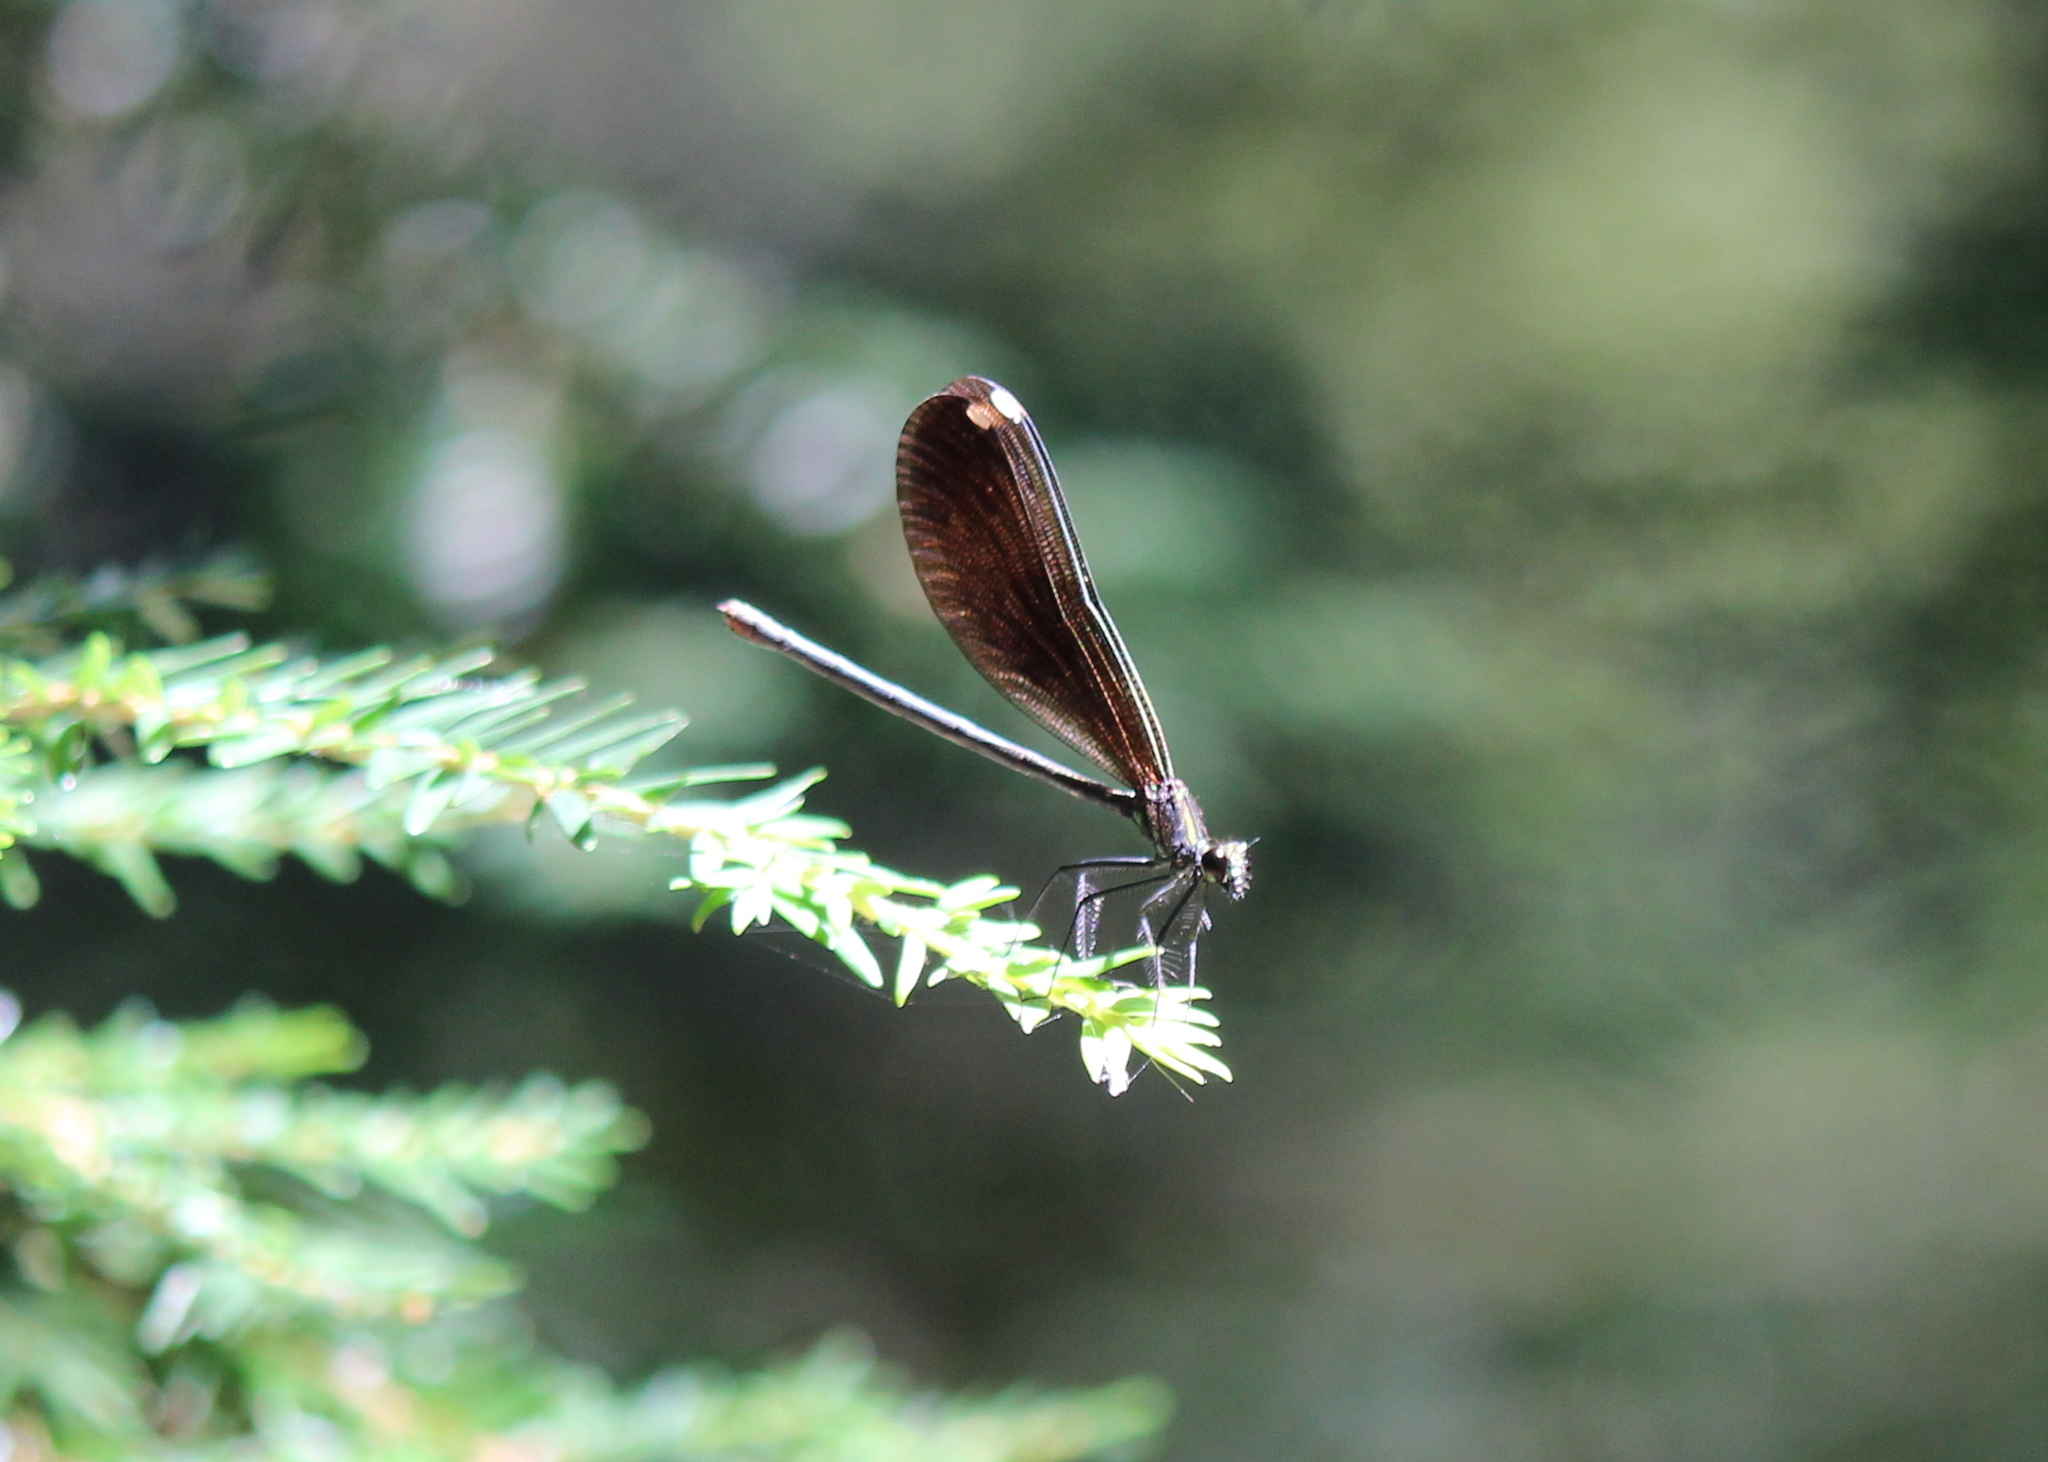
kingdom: Animalia
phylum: Arthropoda
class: Insecta
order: Odonata
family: Calopterygidae
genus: Calopteryx
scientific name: Calopteryx maculata
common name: Ebony jewelwing
